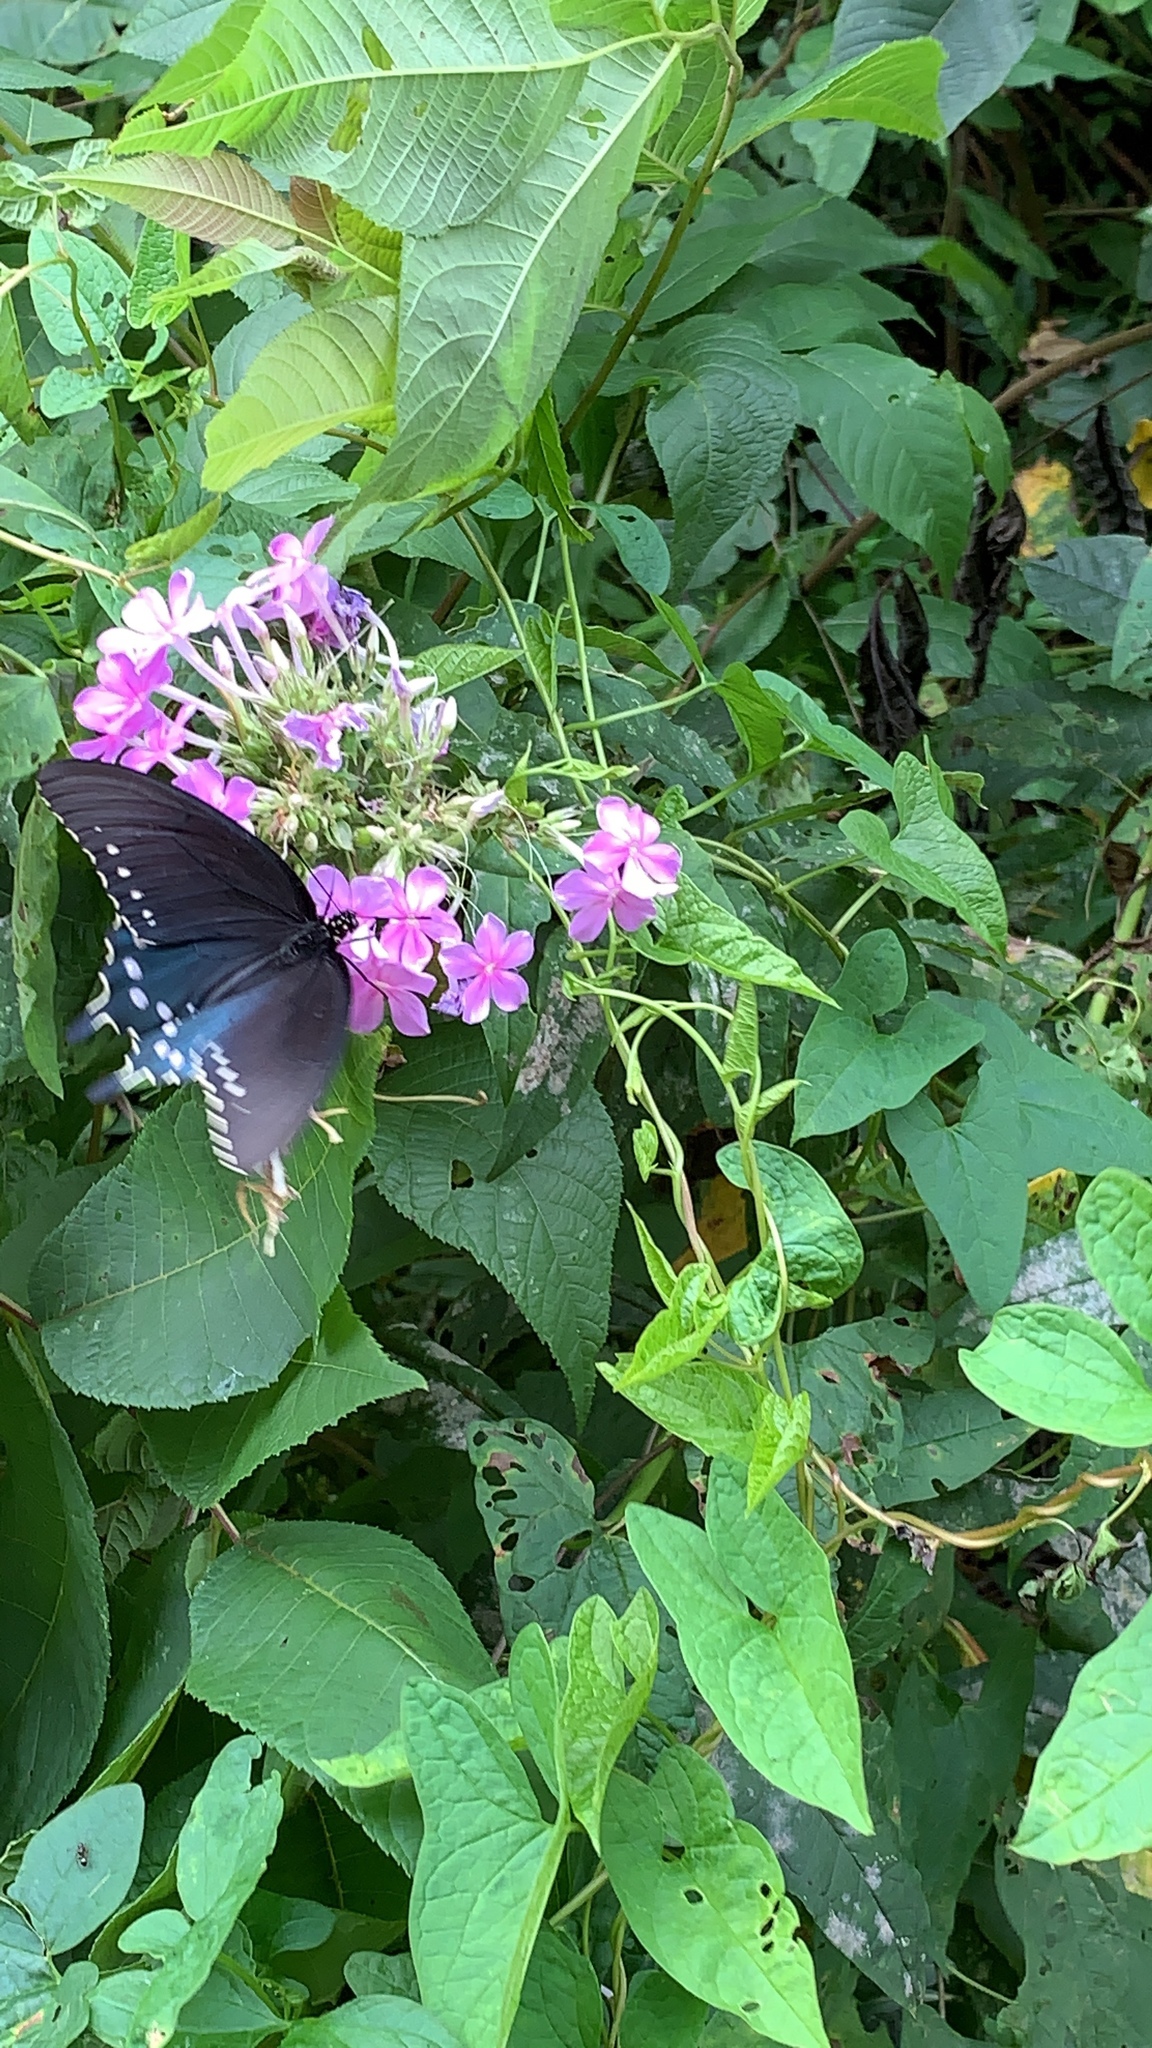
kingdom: Animalia
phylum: Arthropoda
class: Insecta
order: Lepidoptera
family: Papilionidae
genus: Battus
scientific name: Battus philenor
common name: Pipevine swallowtail
